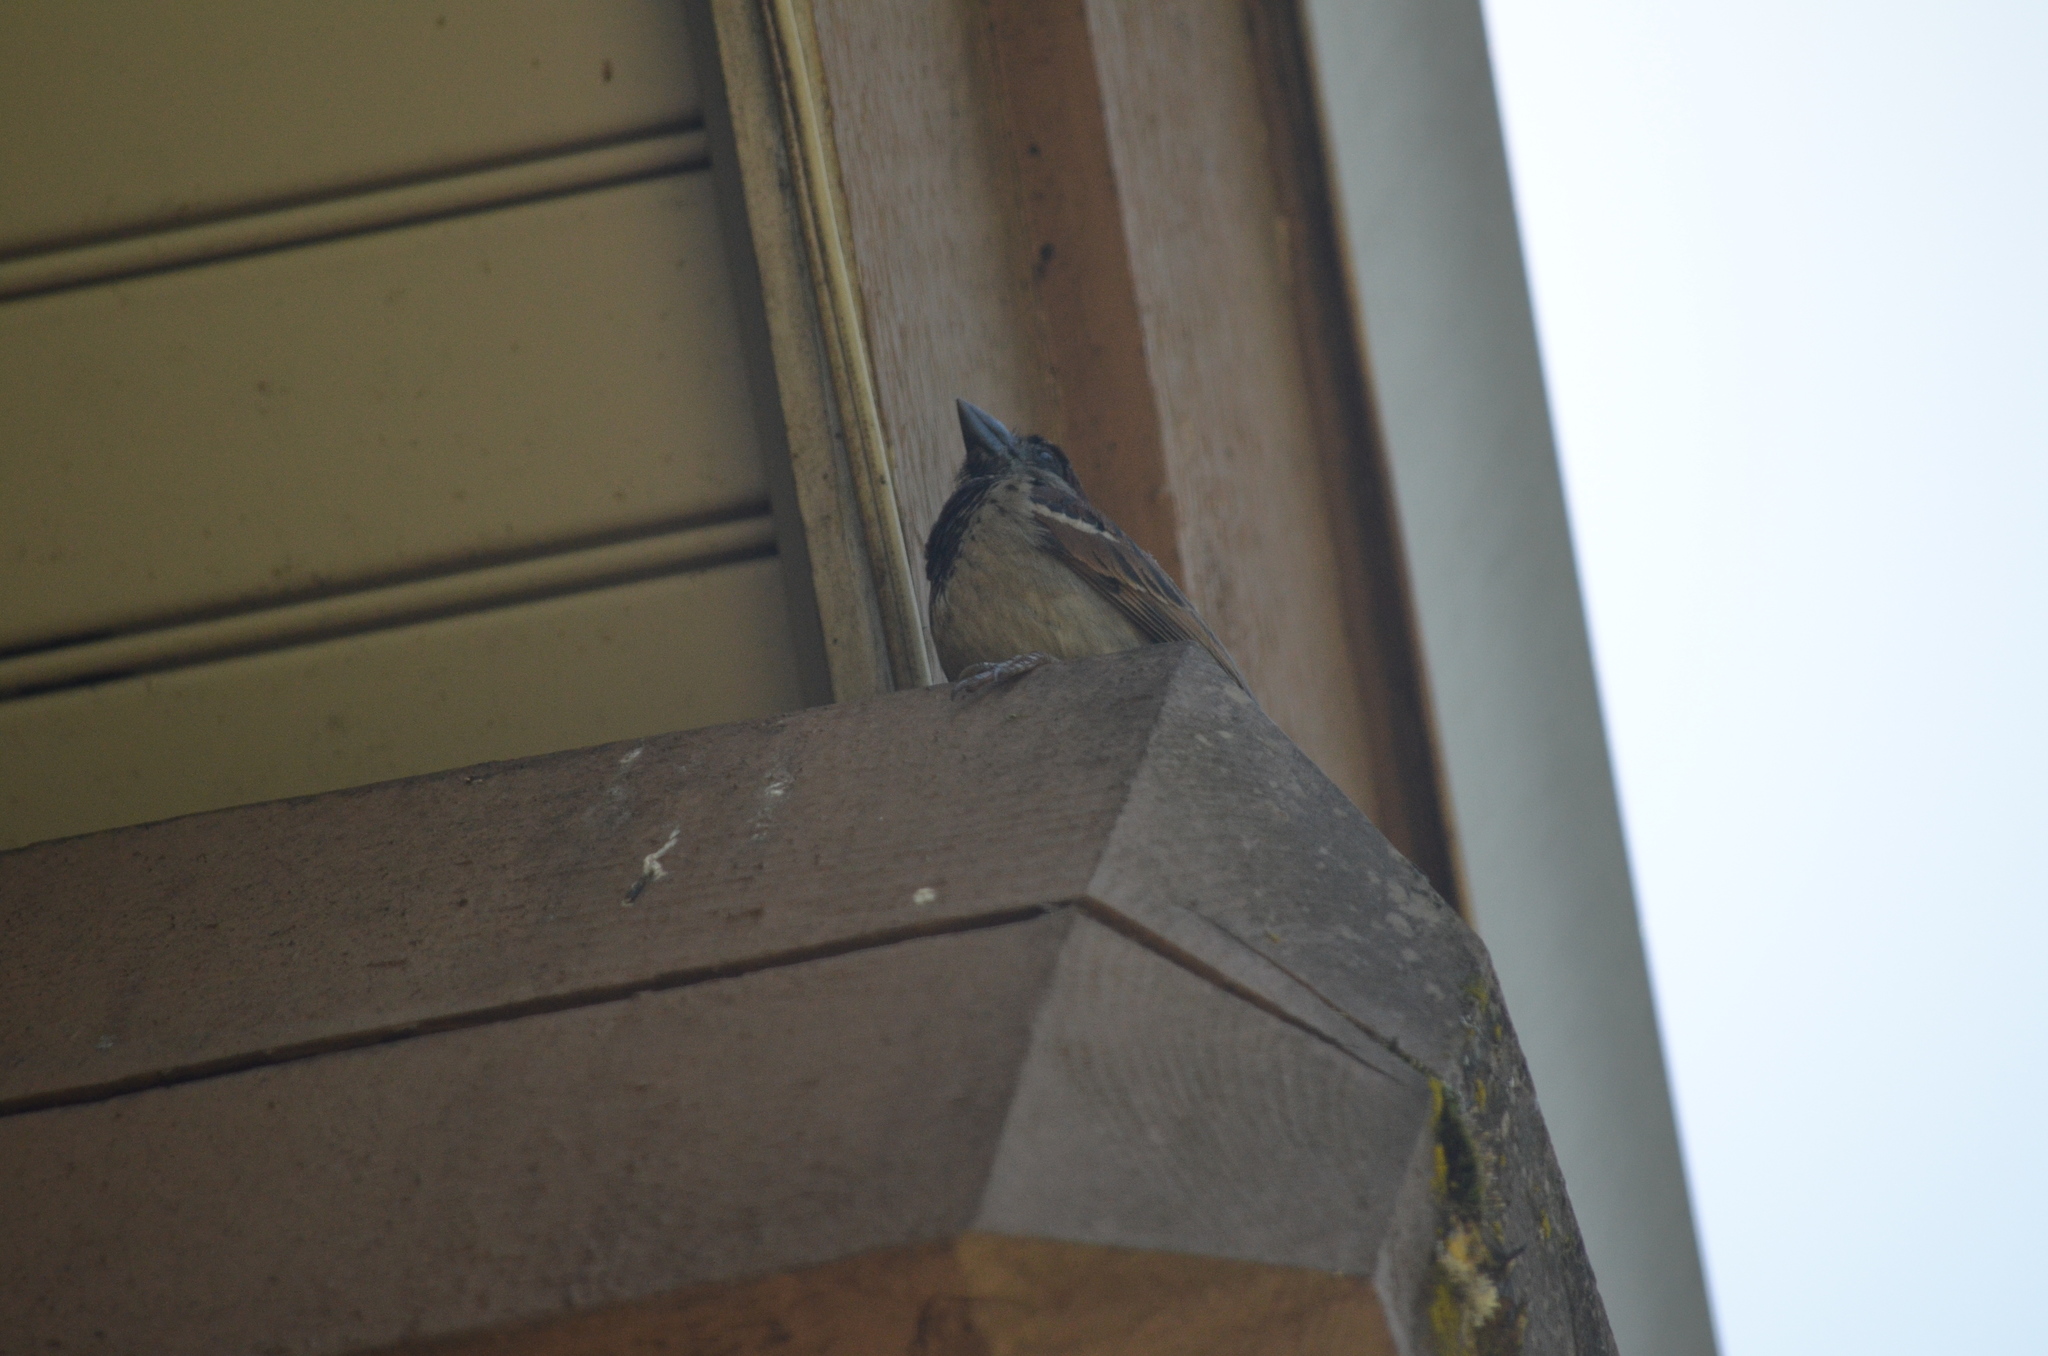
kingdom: Animalia
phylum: Chordata
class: Aves
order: Passeriformes
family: Passeridae
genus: Passer
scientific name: Passer domesticus
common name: House sparrow
